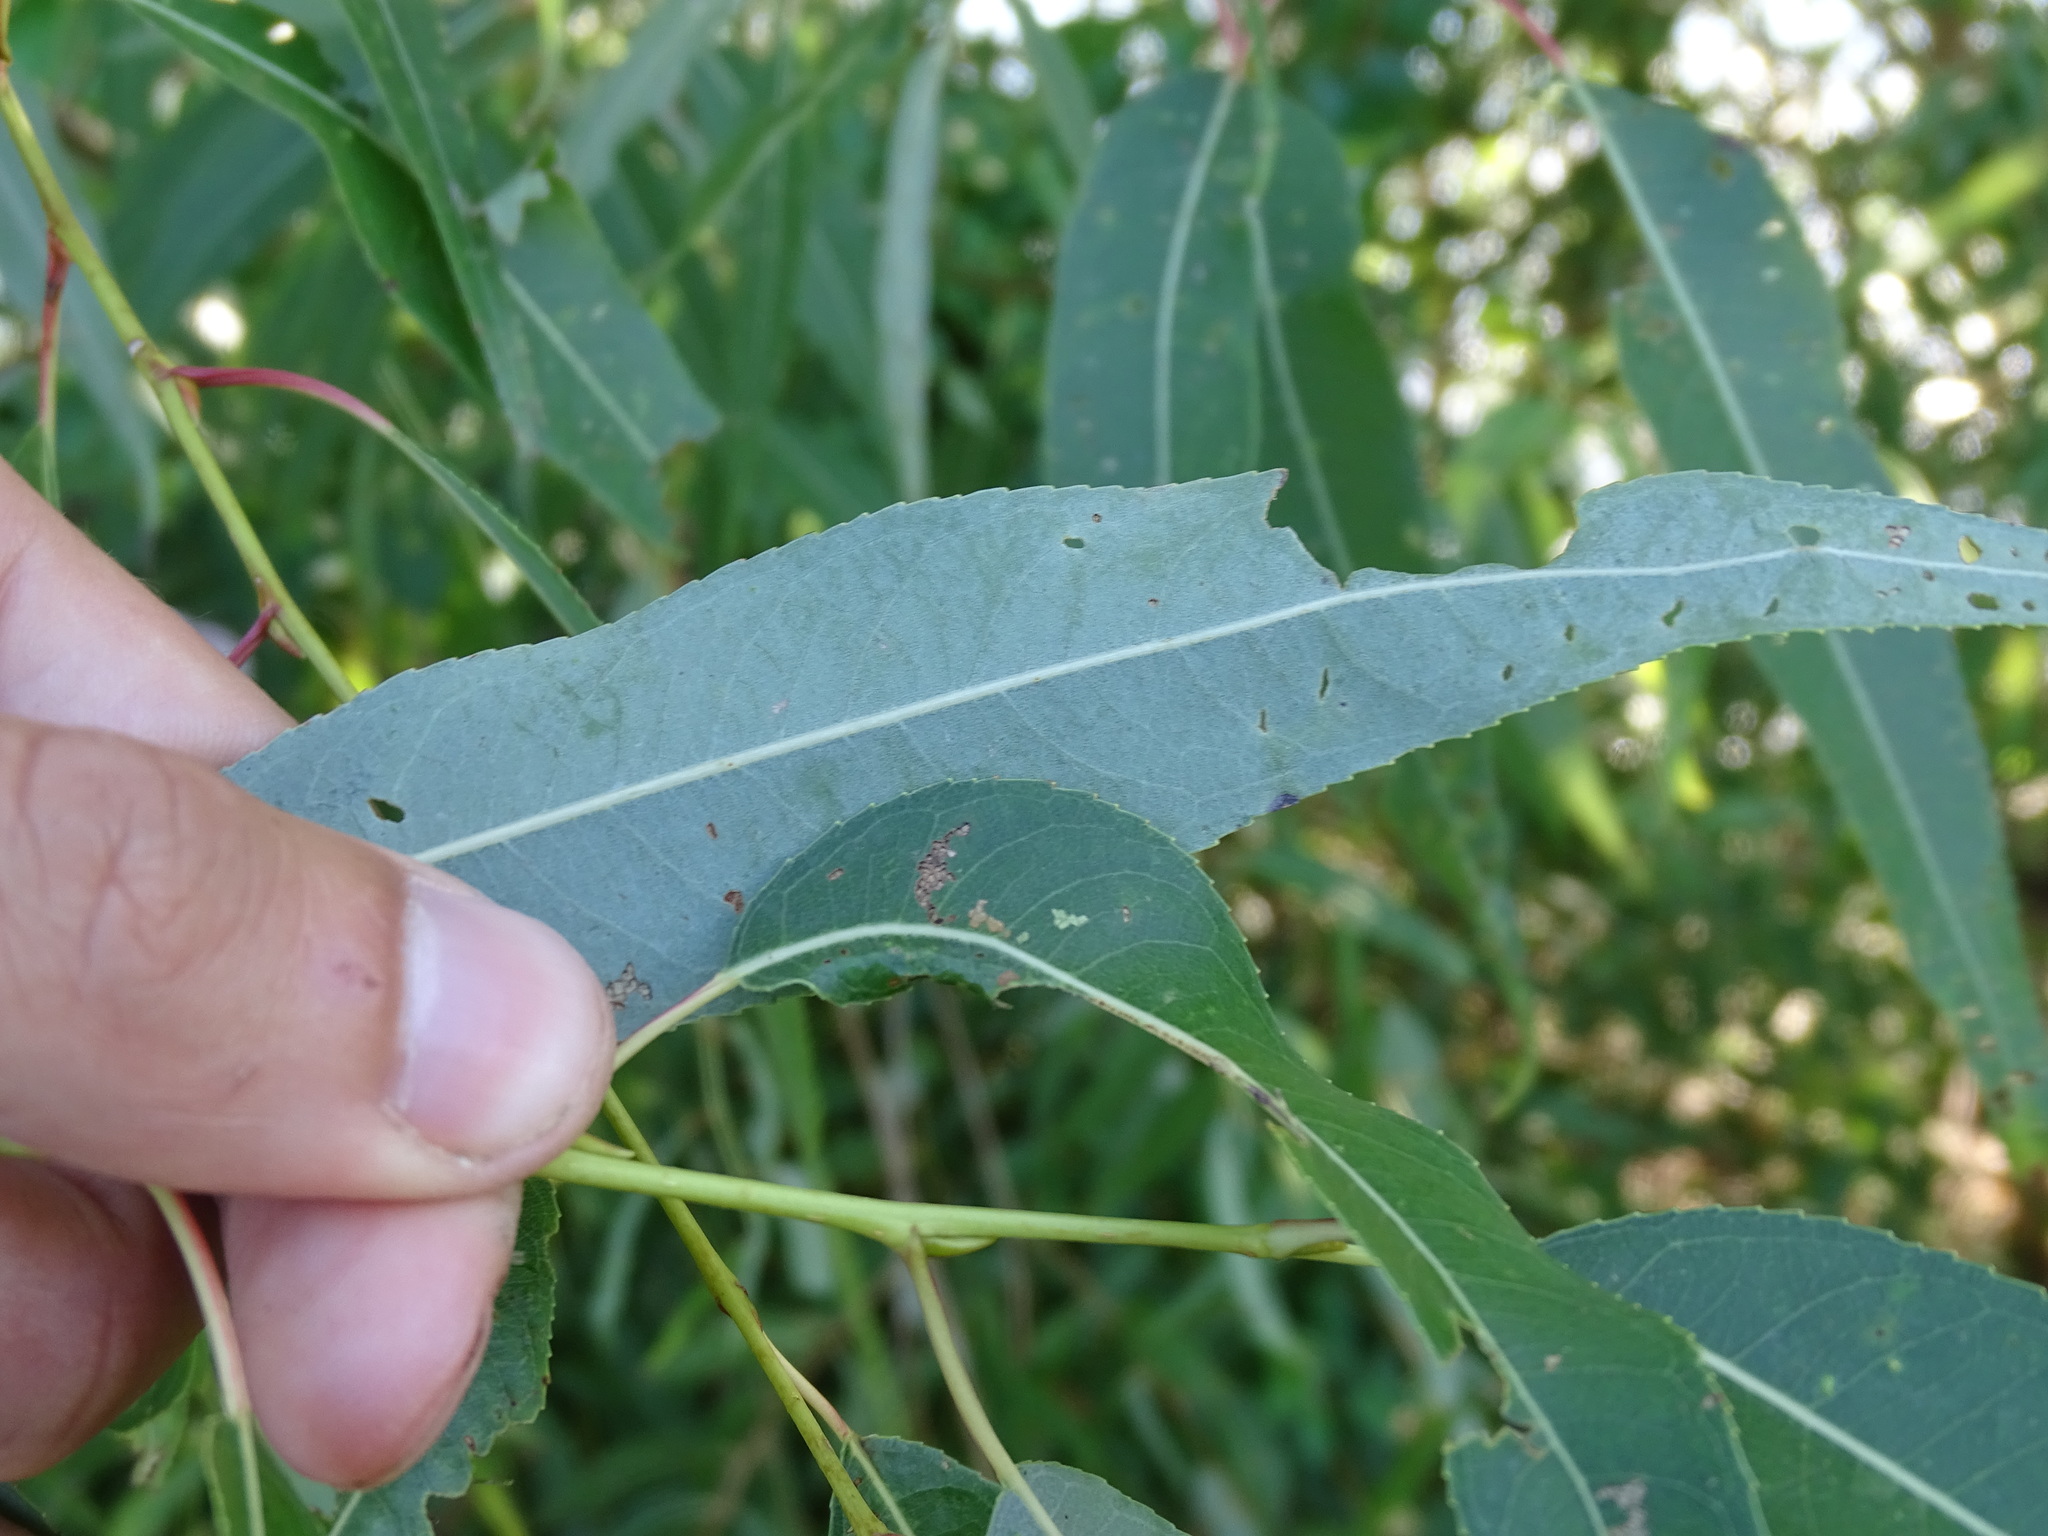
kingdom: Plantae
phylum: Tracheophyta
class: Magnoliopsida
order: Malpighiales
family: Salicaceae
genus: Salix
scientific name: Salix amygdaloides
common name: Peach leaf willow
